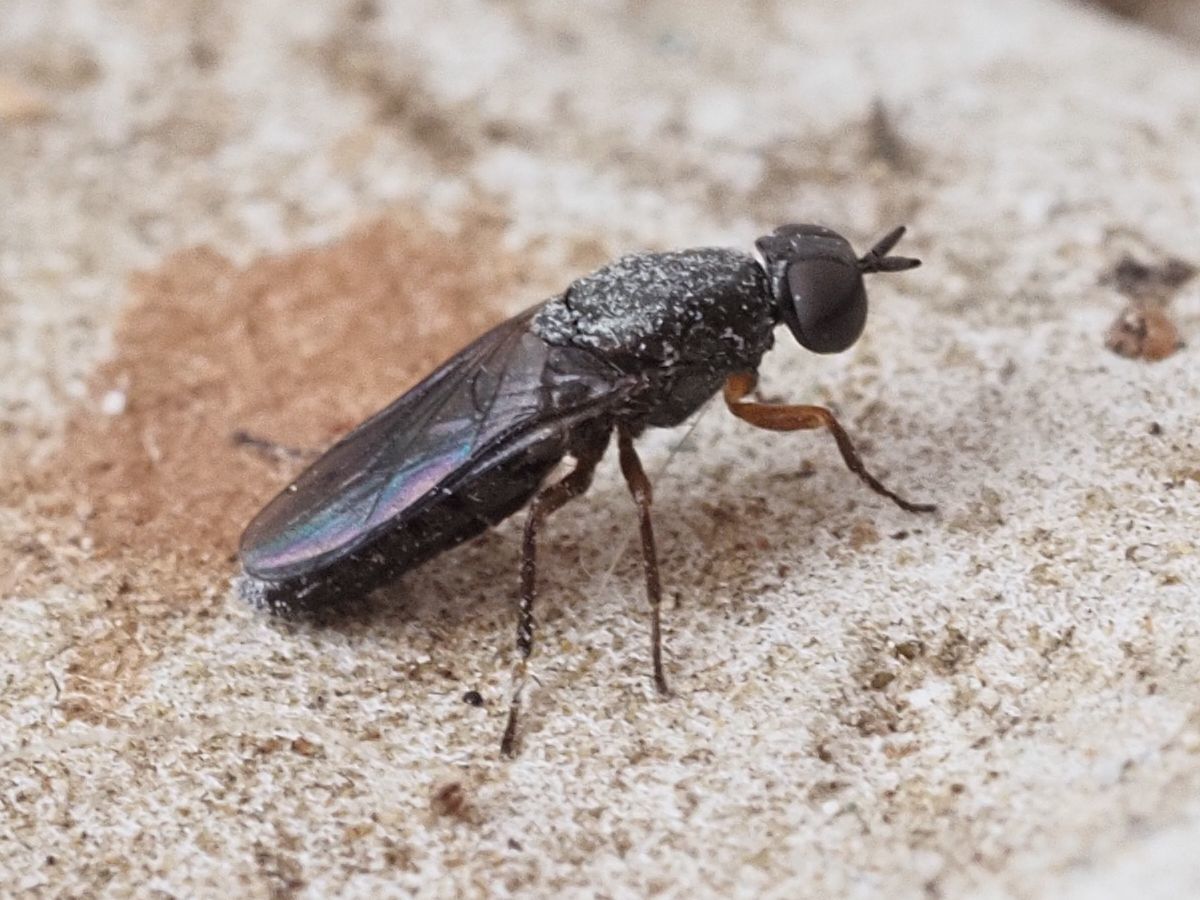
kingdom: Animalia
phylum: Arthropoda
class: Insecta
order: Diptera
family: Scenopinidae
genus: Scenopinus
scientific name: Scenopinus fenestralis
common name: House windowfly
